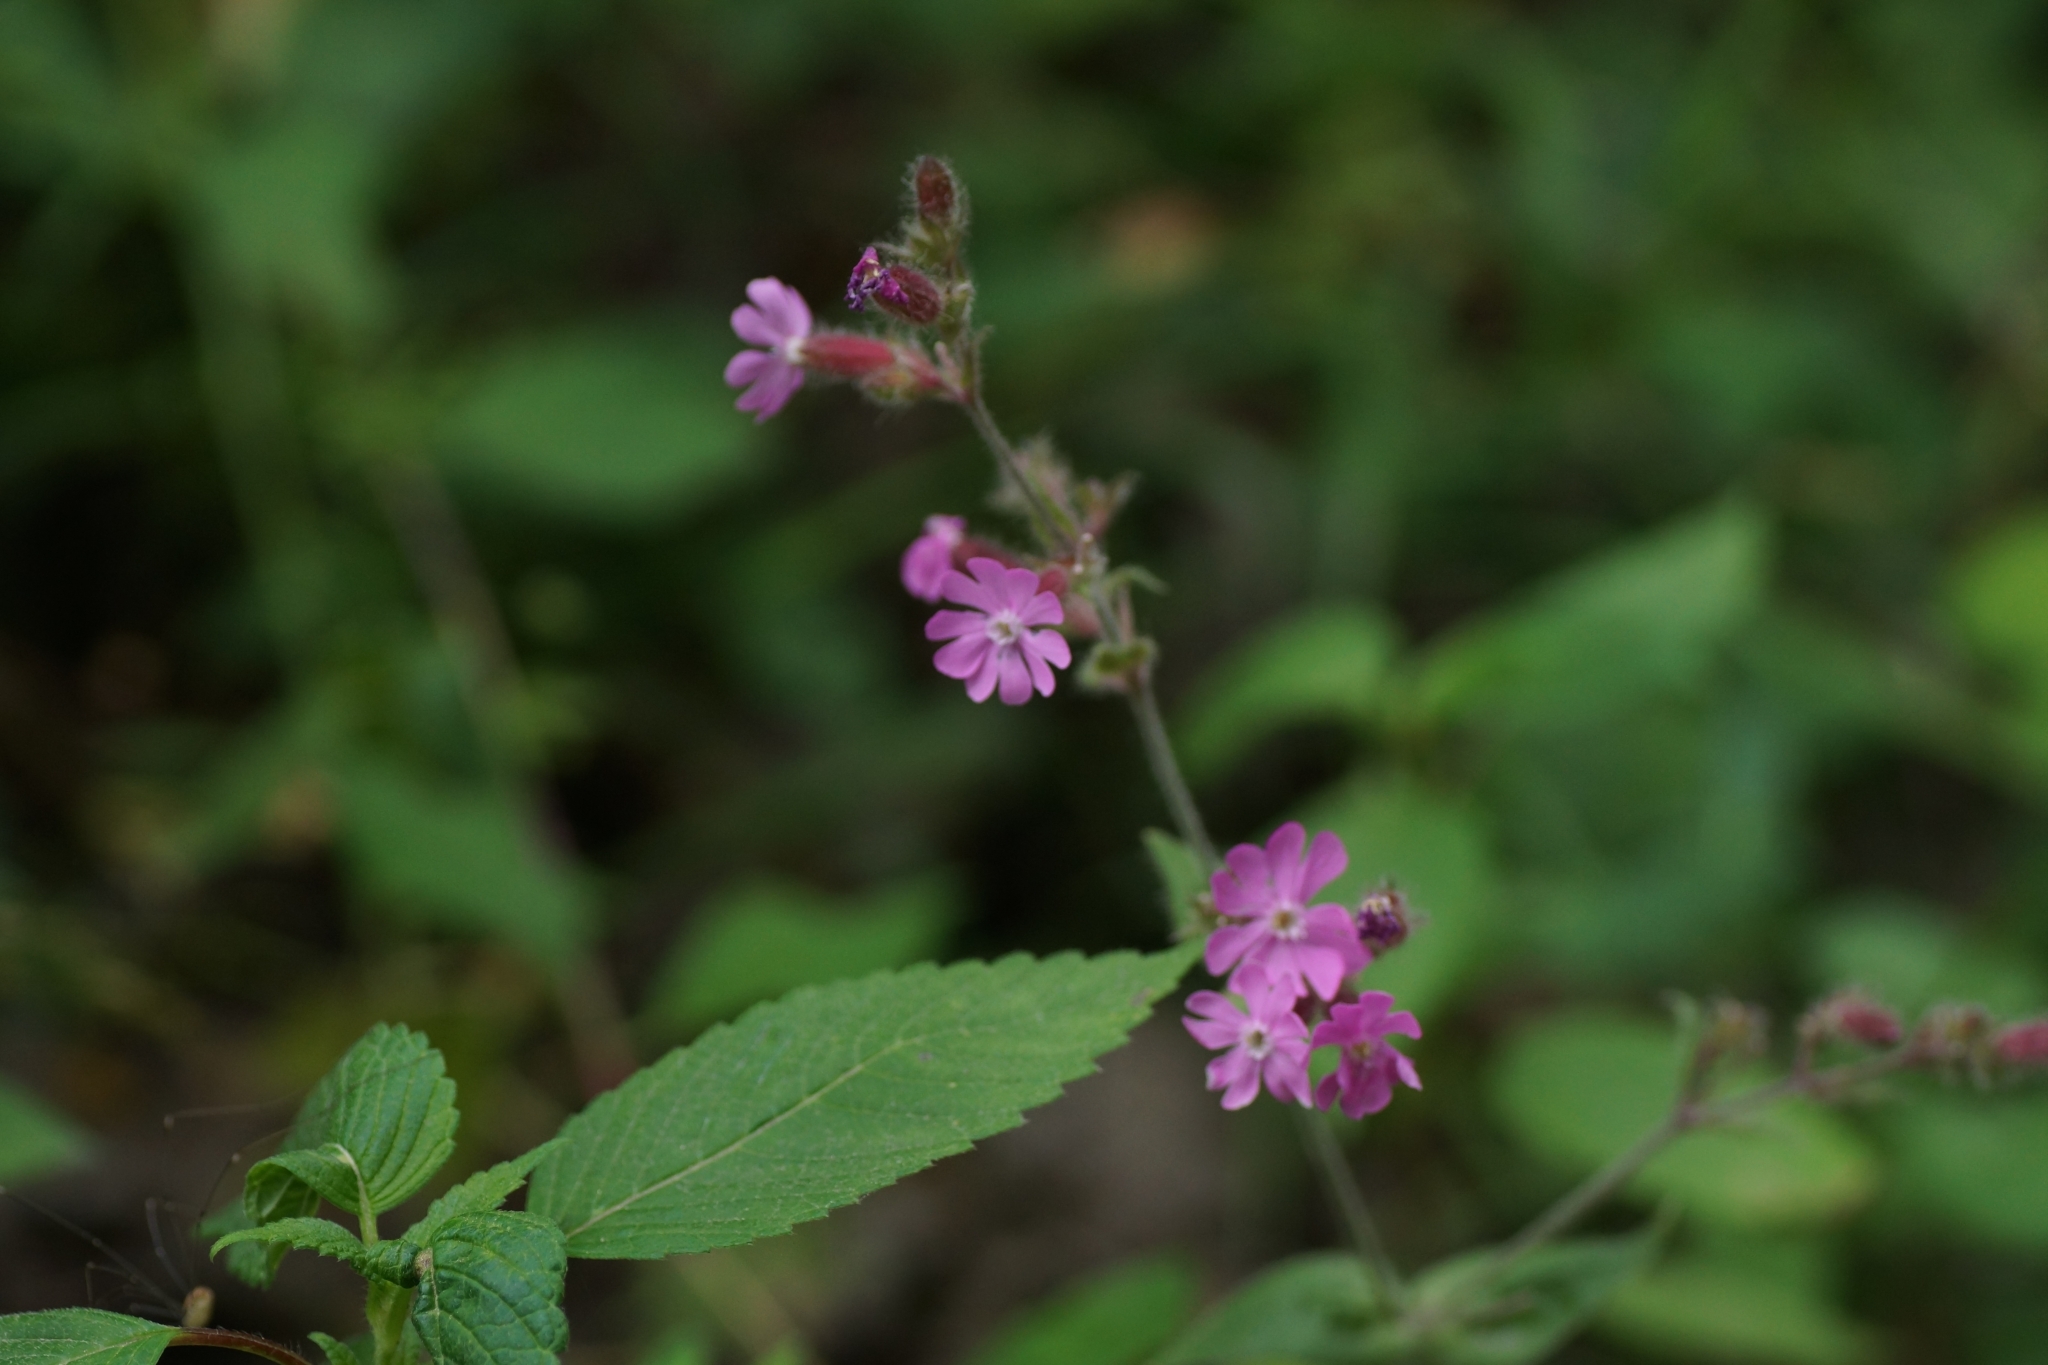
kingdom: Plantae
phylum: Tracheophyta
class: Magnoliopsida
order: Caryophyllales
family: Caryophyllaceae
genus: Silene
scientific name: Silene dioica
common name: Red campion
